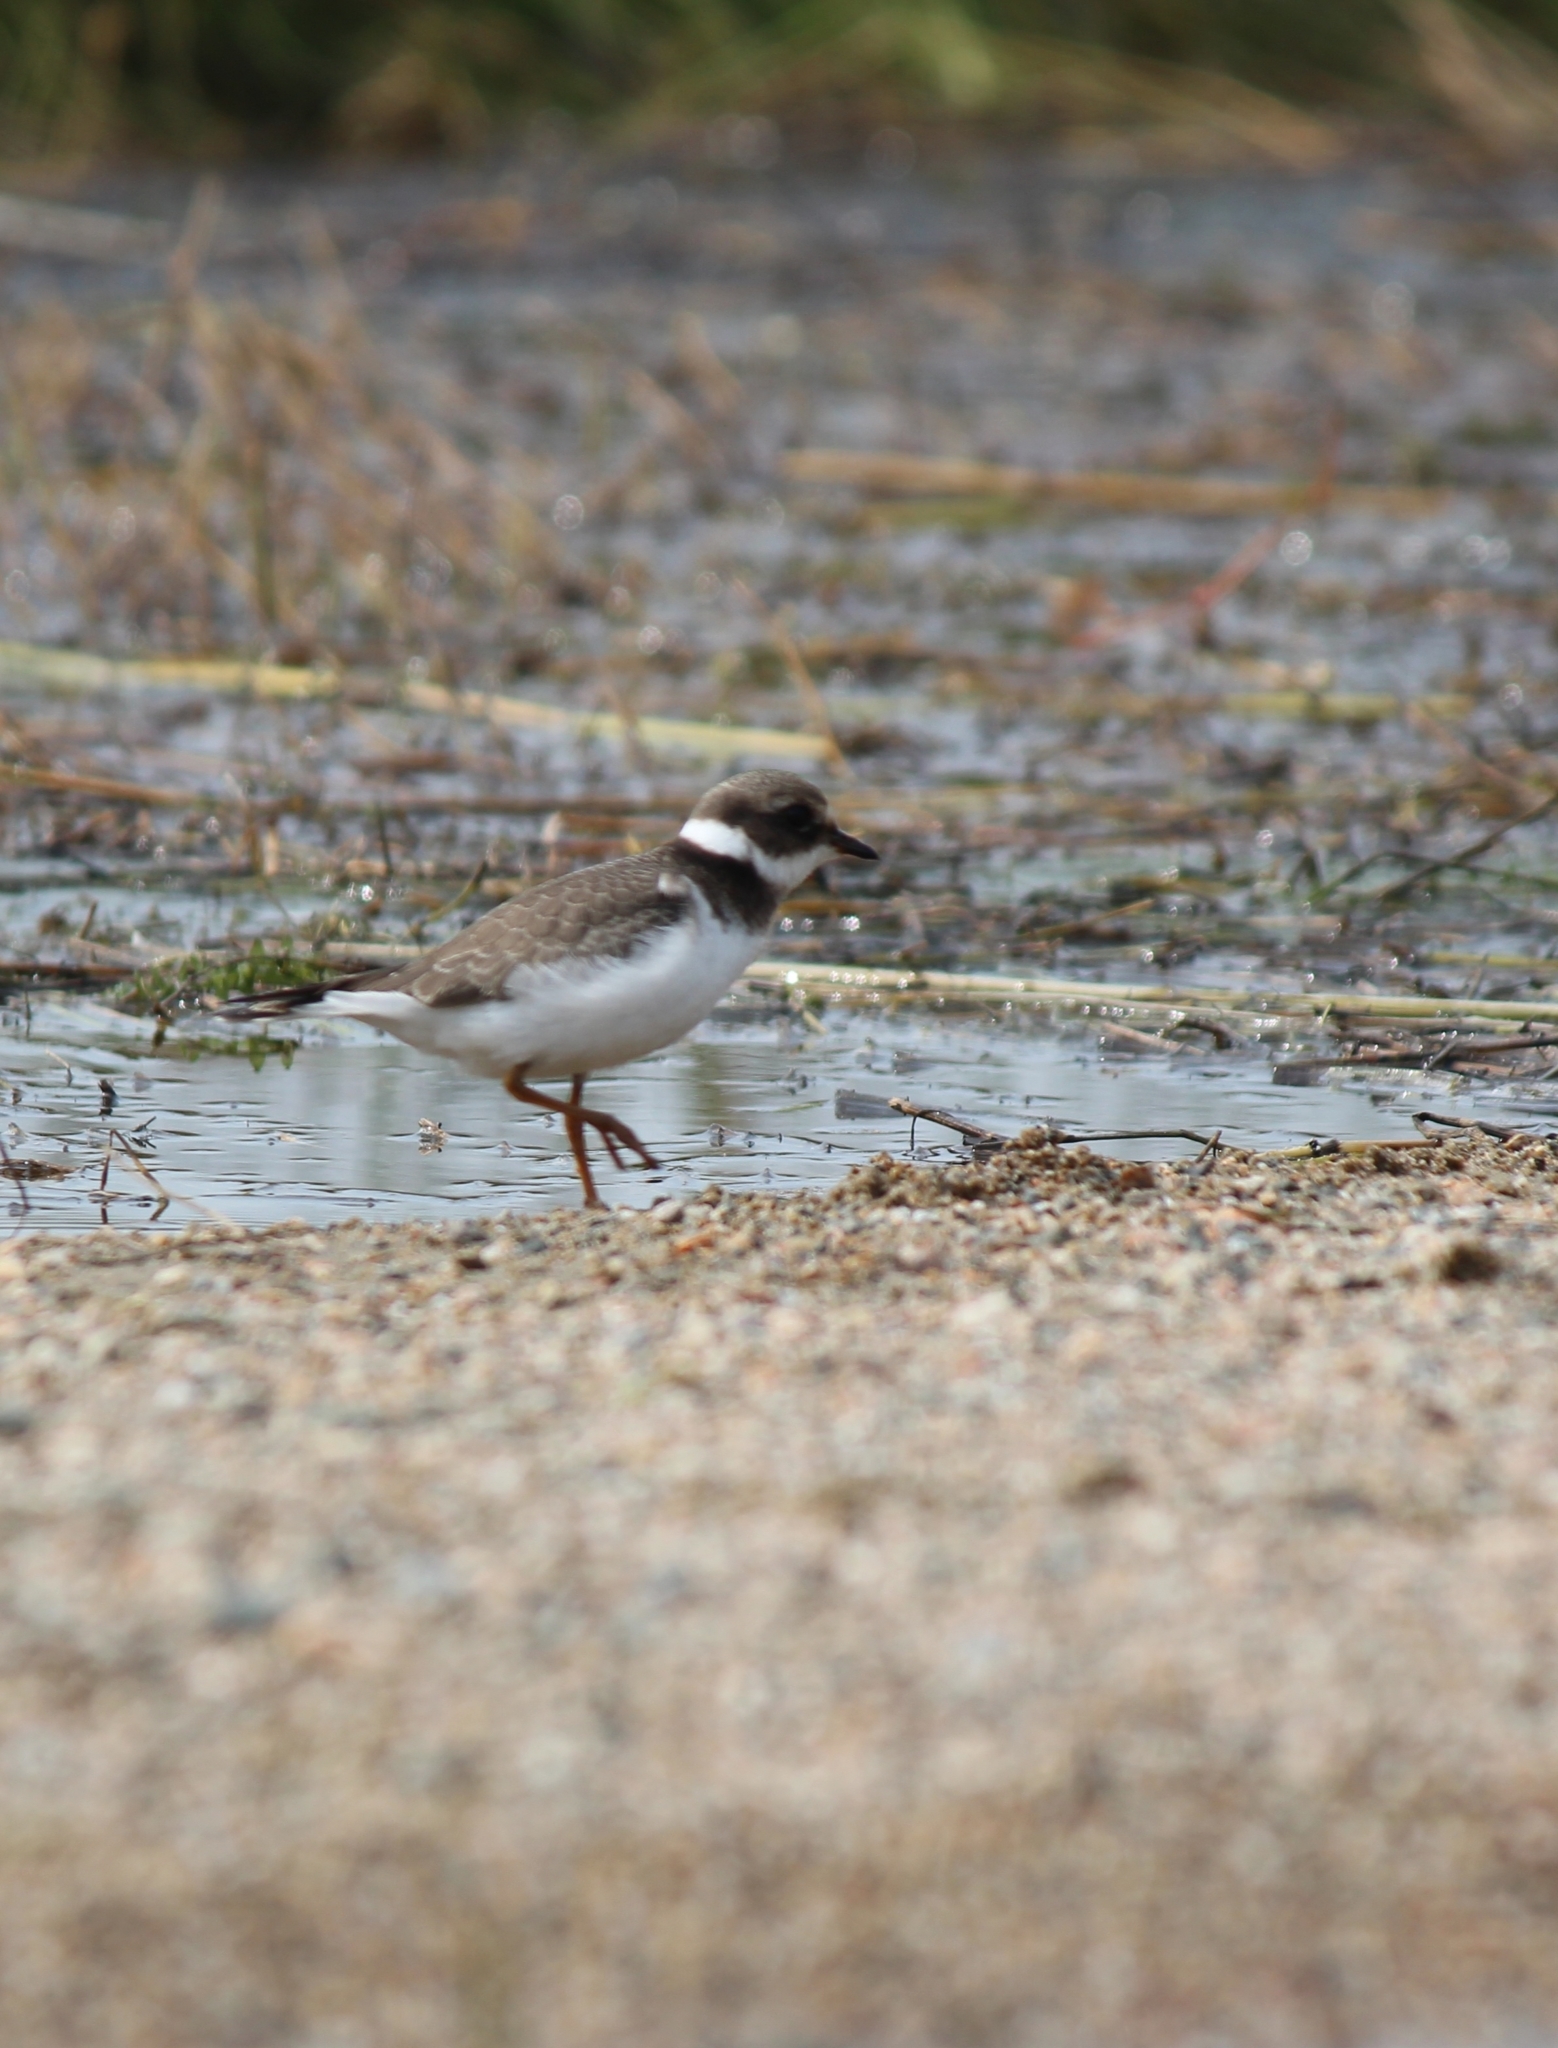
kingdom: Animalia
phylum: Chordata
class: Aves
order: Charadriiformes
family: Charadriidae
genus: Charadrius
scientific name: Charadrius hiaticula
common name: Common ringed plover
